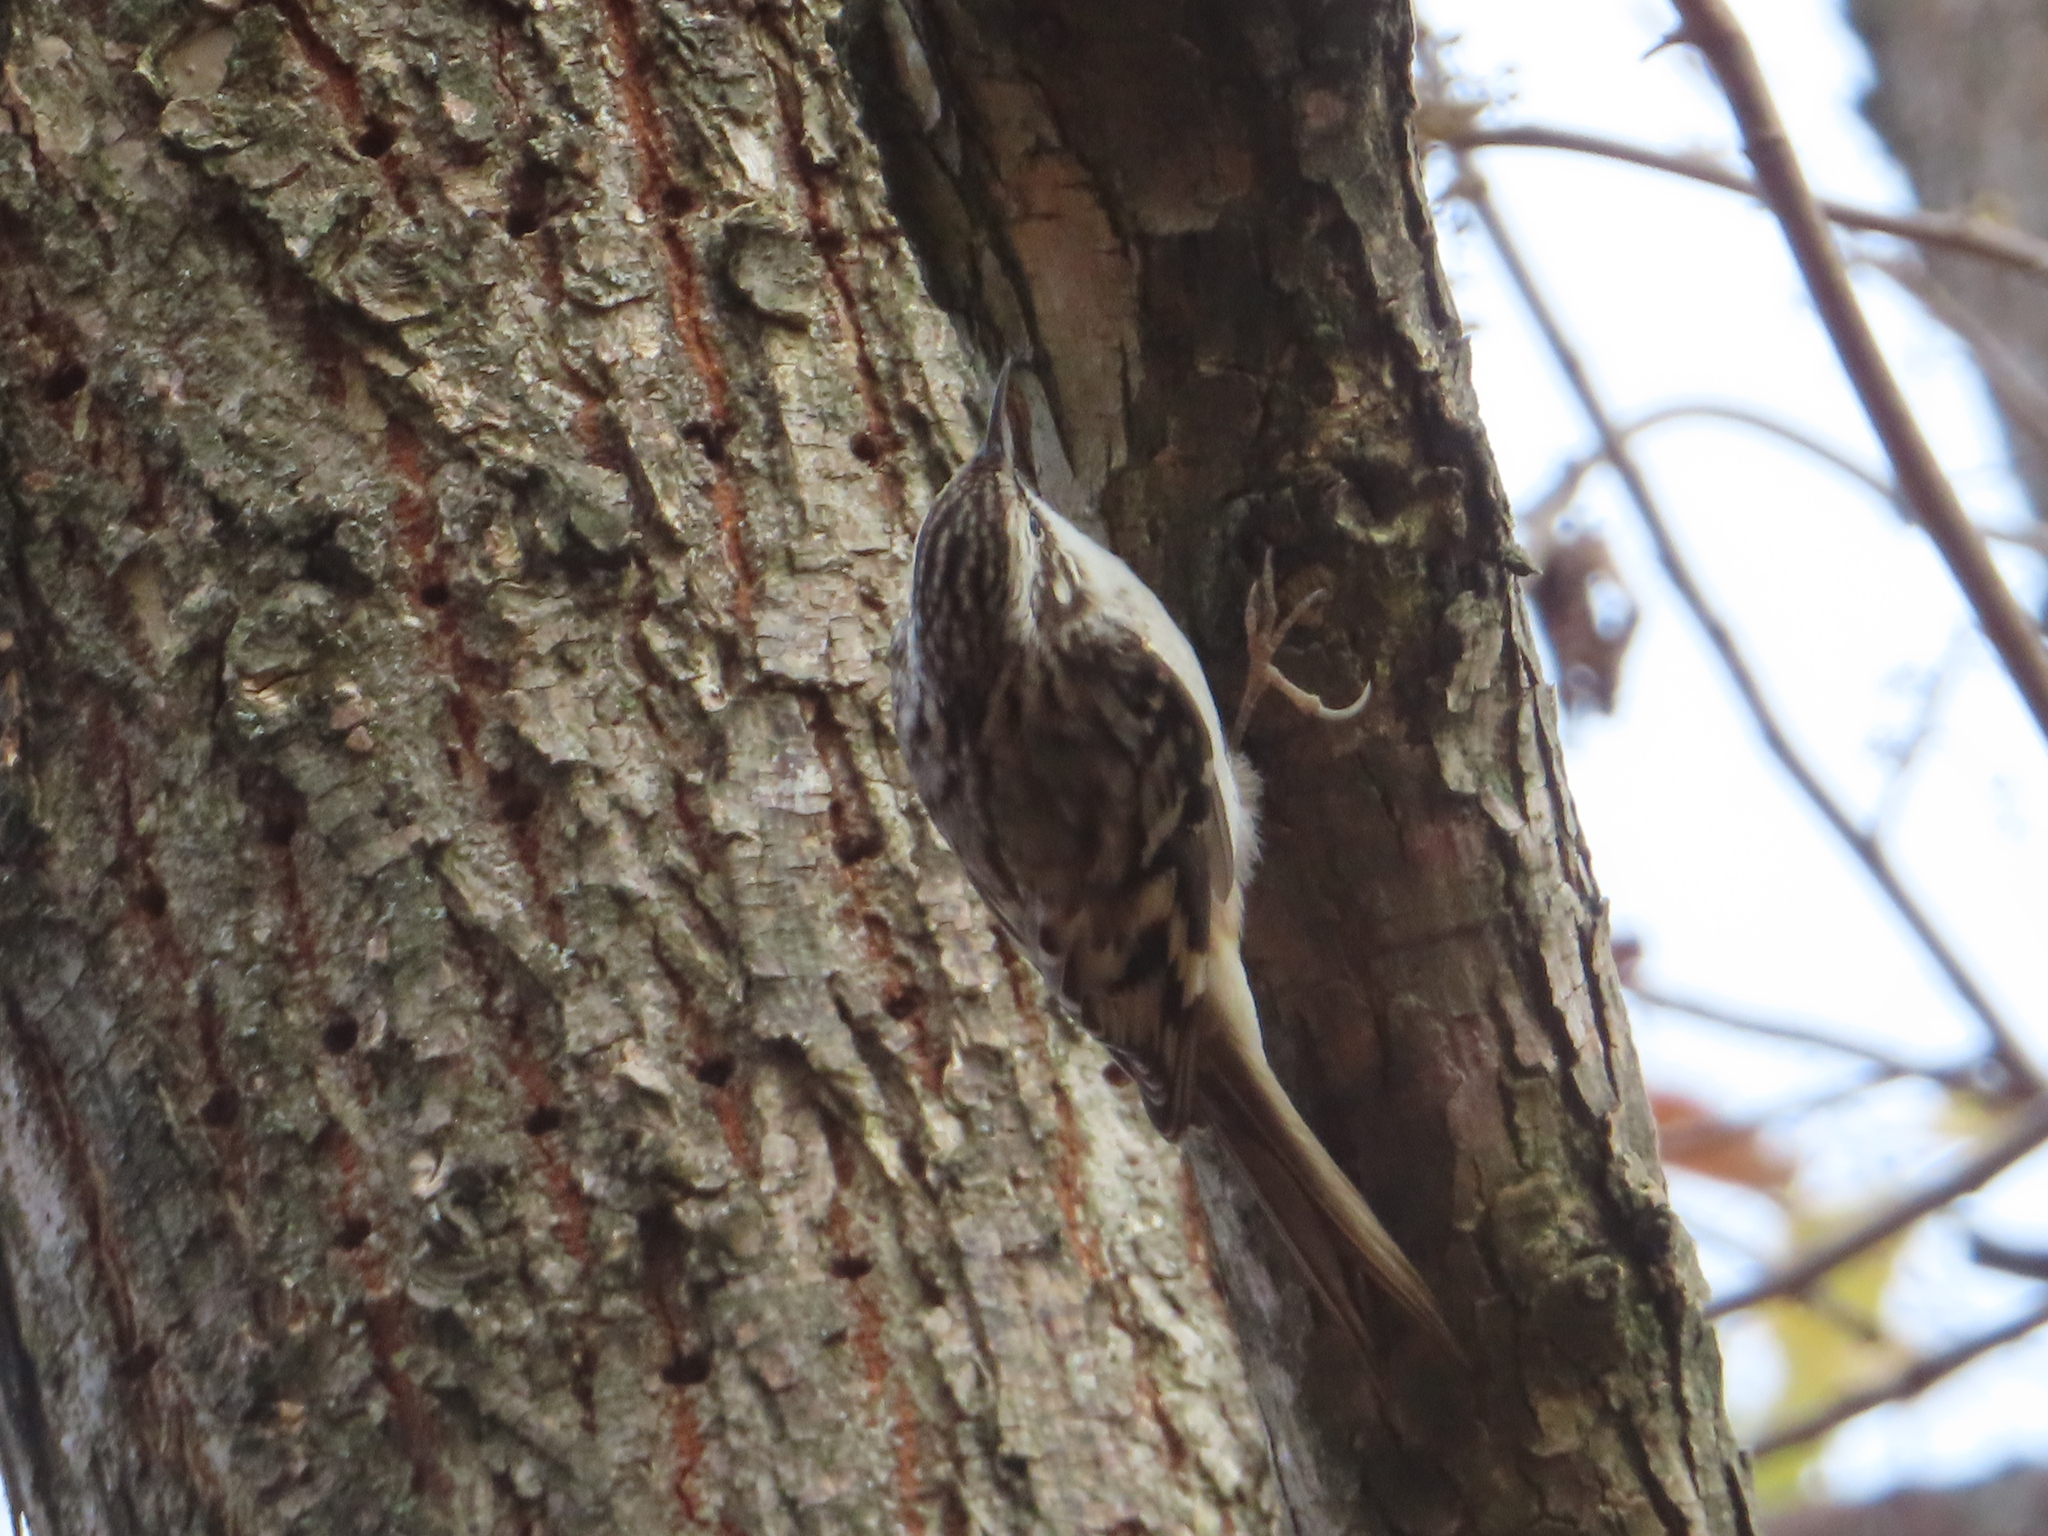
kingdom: Animalia
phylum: Chordata
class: Aves
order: Passeriformes
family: Certhiidae
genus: Certhia
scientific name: Certhia americana
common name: Brown creeper
